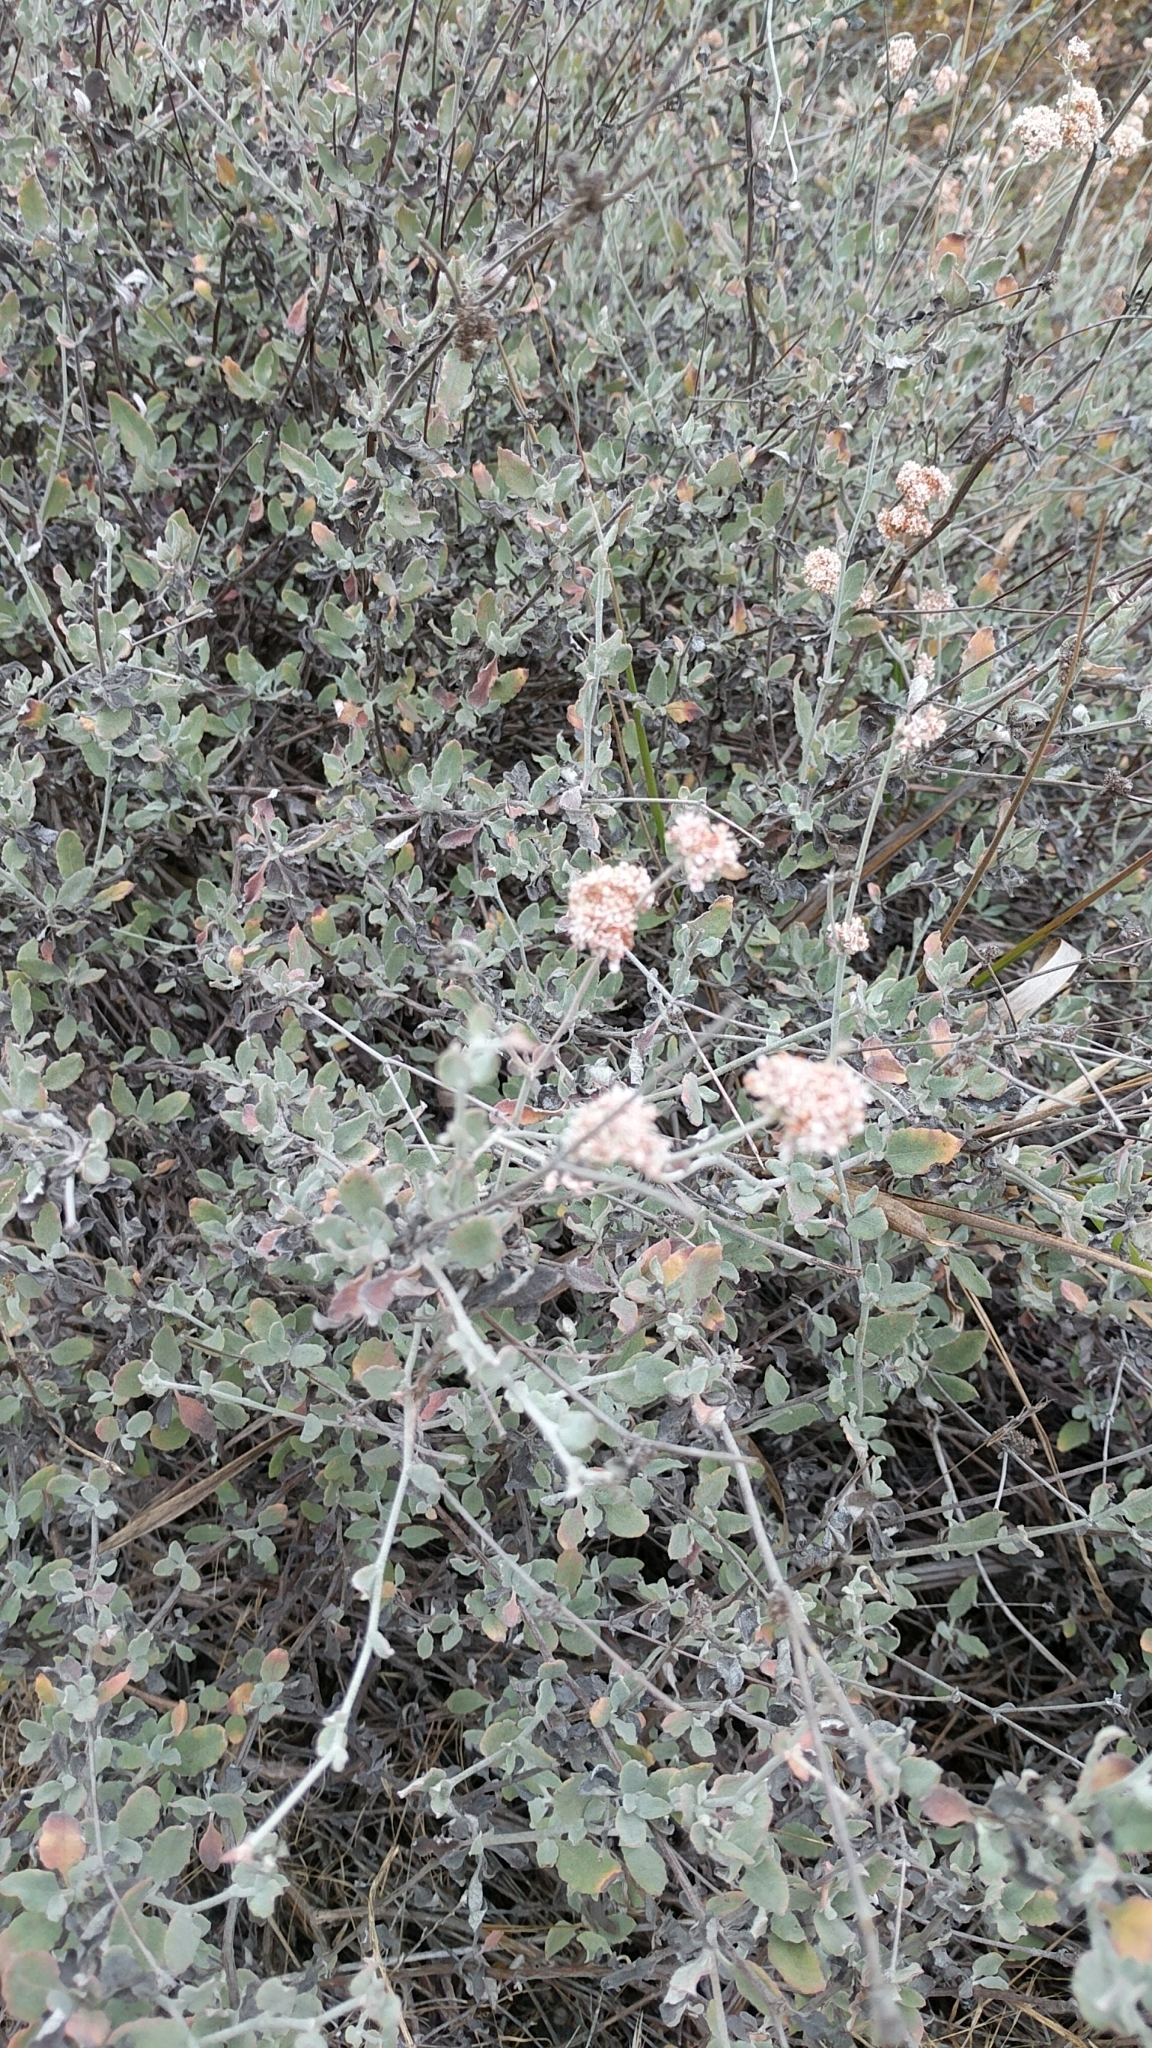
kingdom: Plantae
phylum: Tracheophyta
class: Magnoliopsida
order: Caryophyllales
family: Polygonaceae
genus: Eriogonum
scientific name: Eriogonum cinereum
